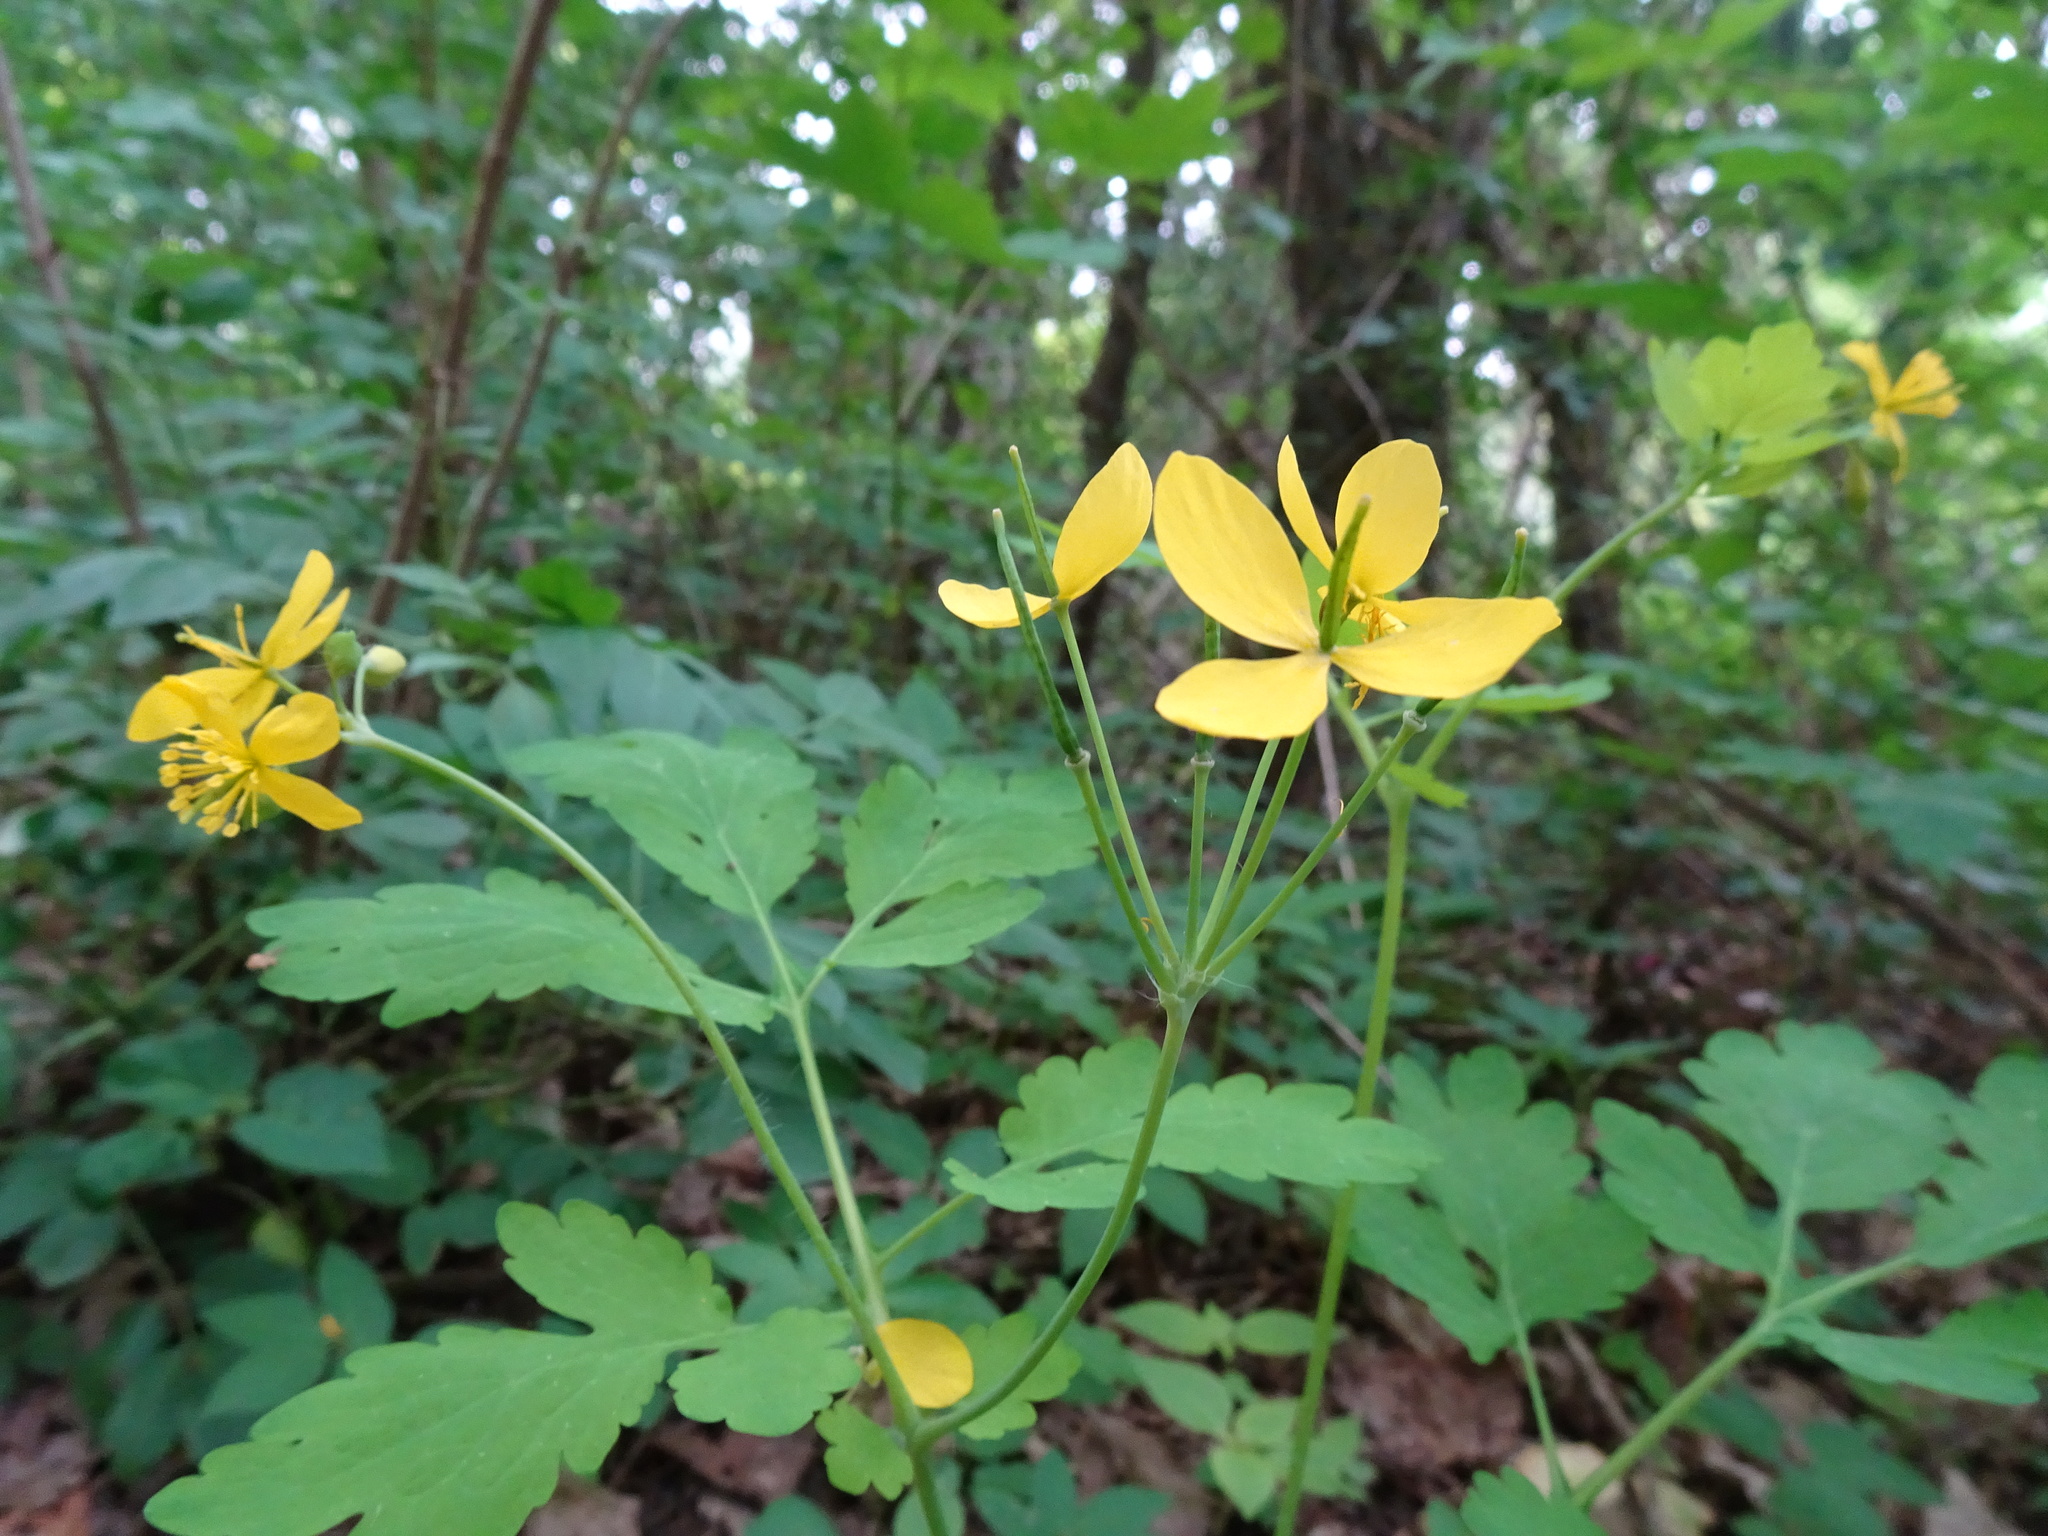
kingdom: Plantae
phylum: Tracheophyta
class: Magnoliopsida
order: Ranunculales
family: Papaveraceae
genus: Chelidonium
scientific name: Chelidonium majus
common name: Greater celandine
